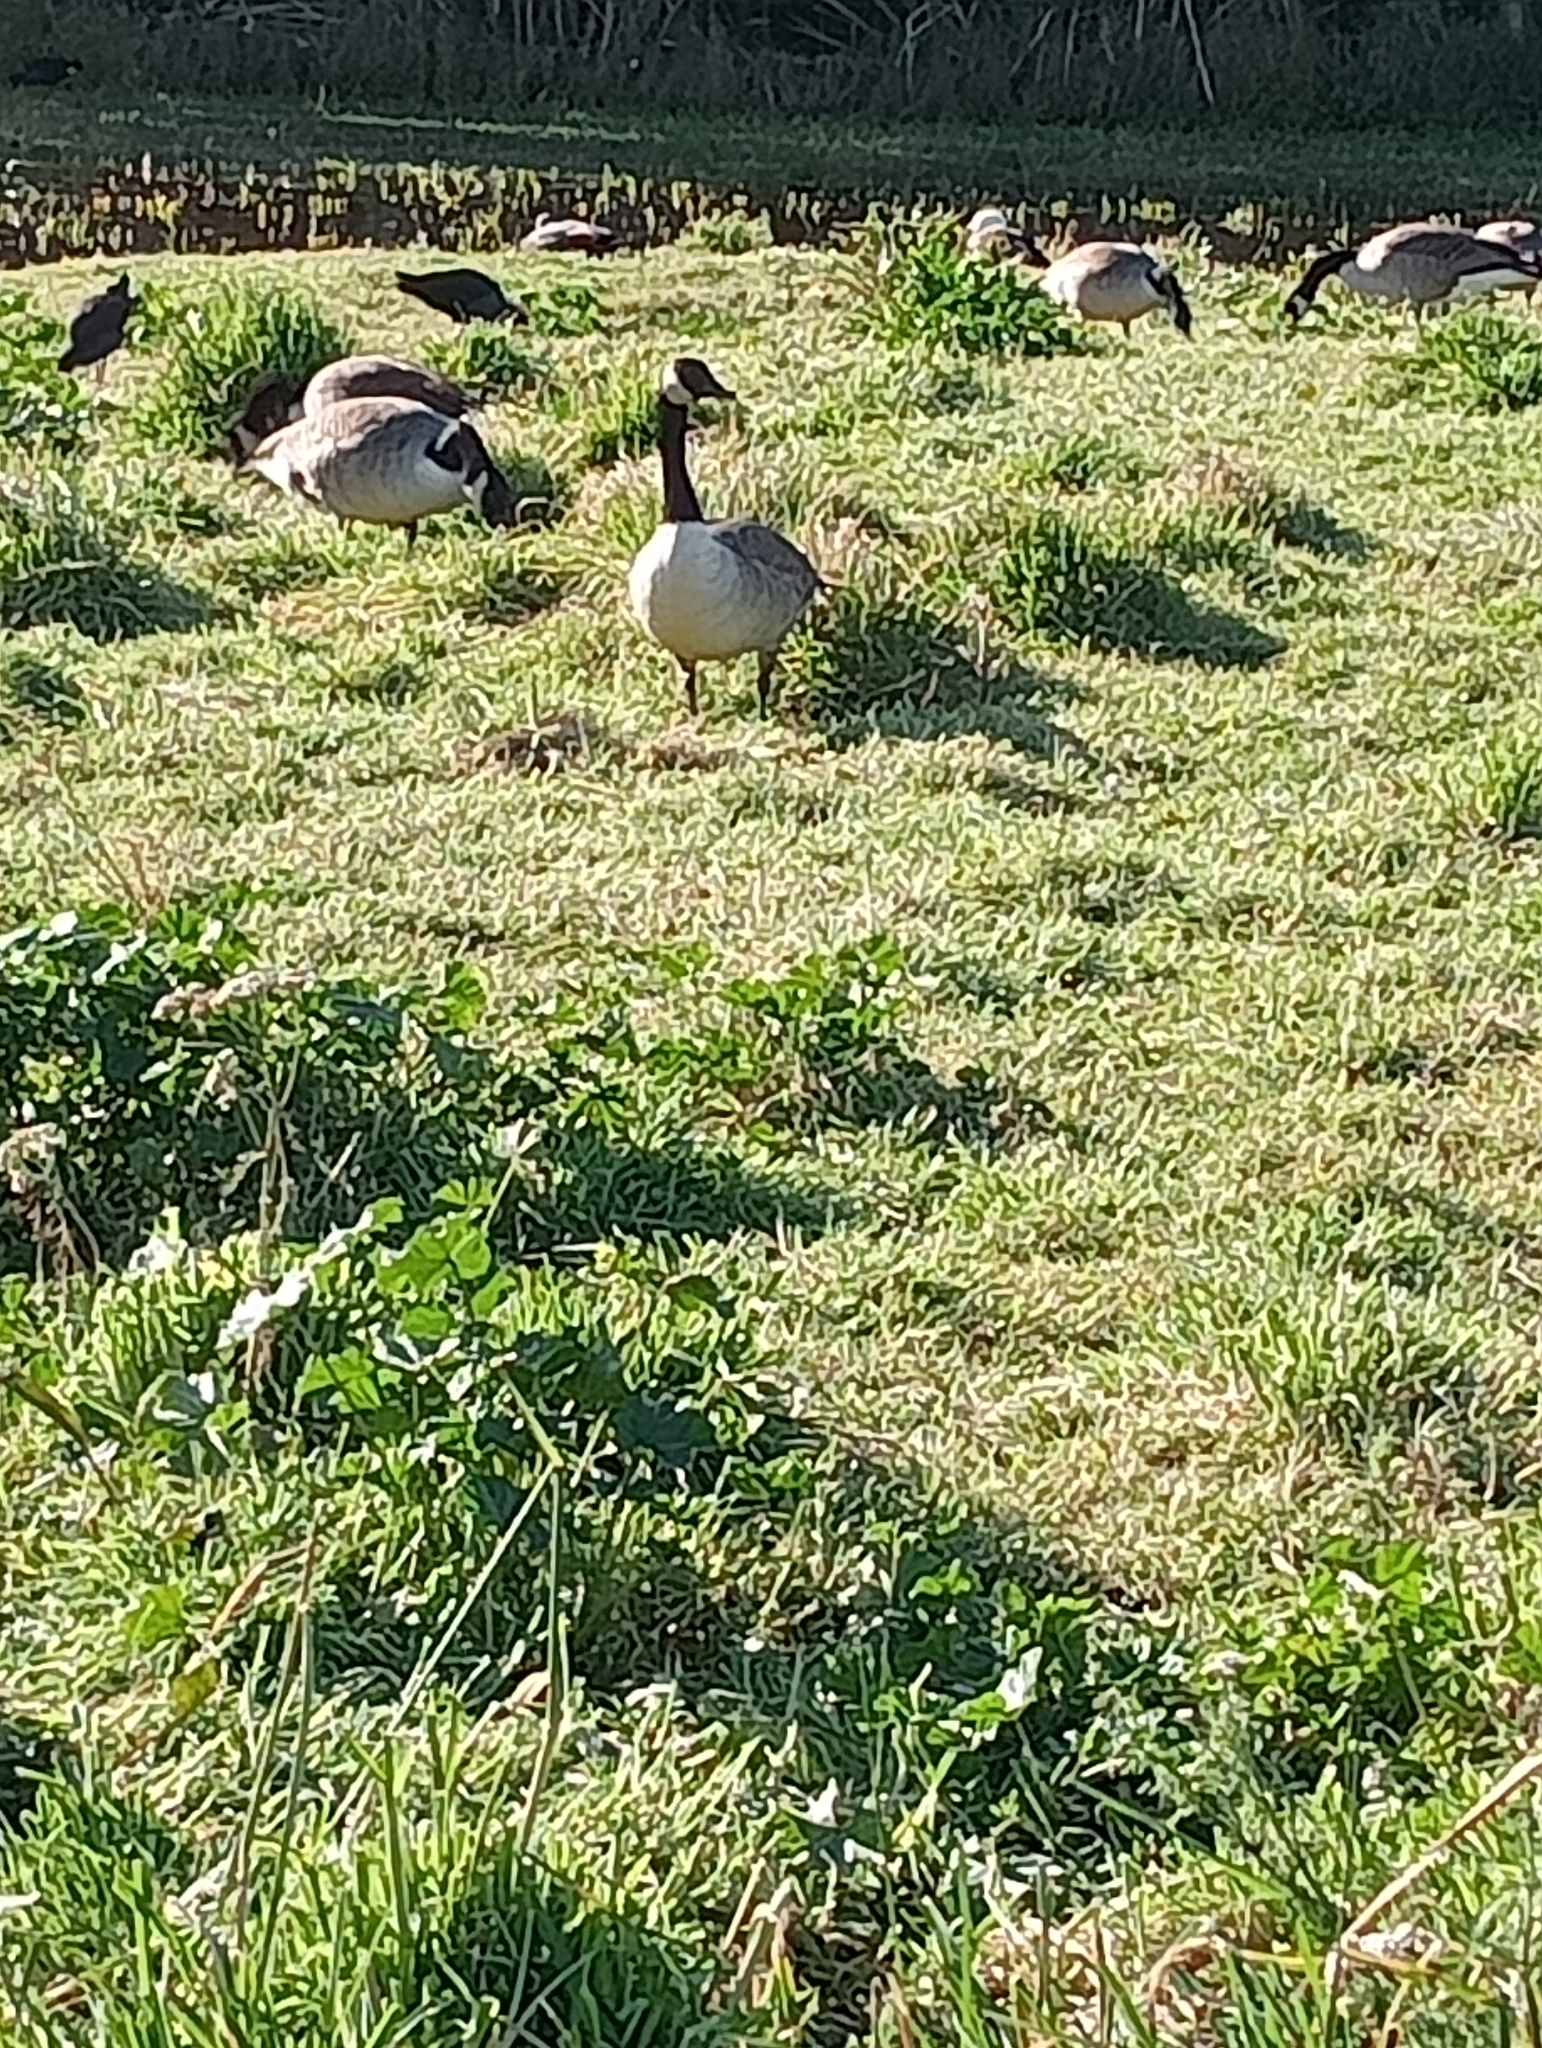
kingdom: Animalia
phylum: Chordata
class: Aves
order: Anseriformes
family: Anatidae
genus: Branta
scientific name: Branta canadensis
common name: Canada goose
